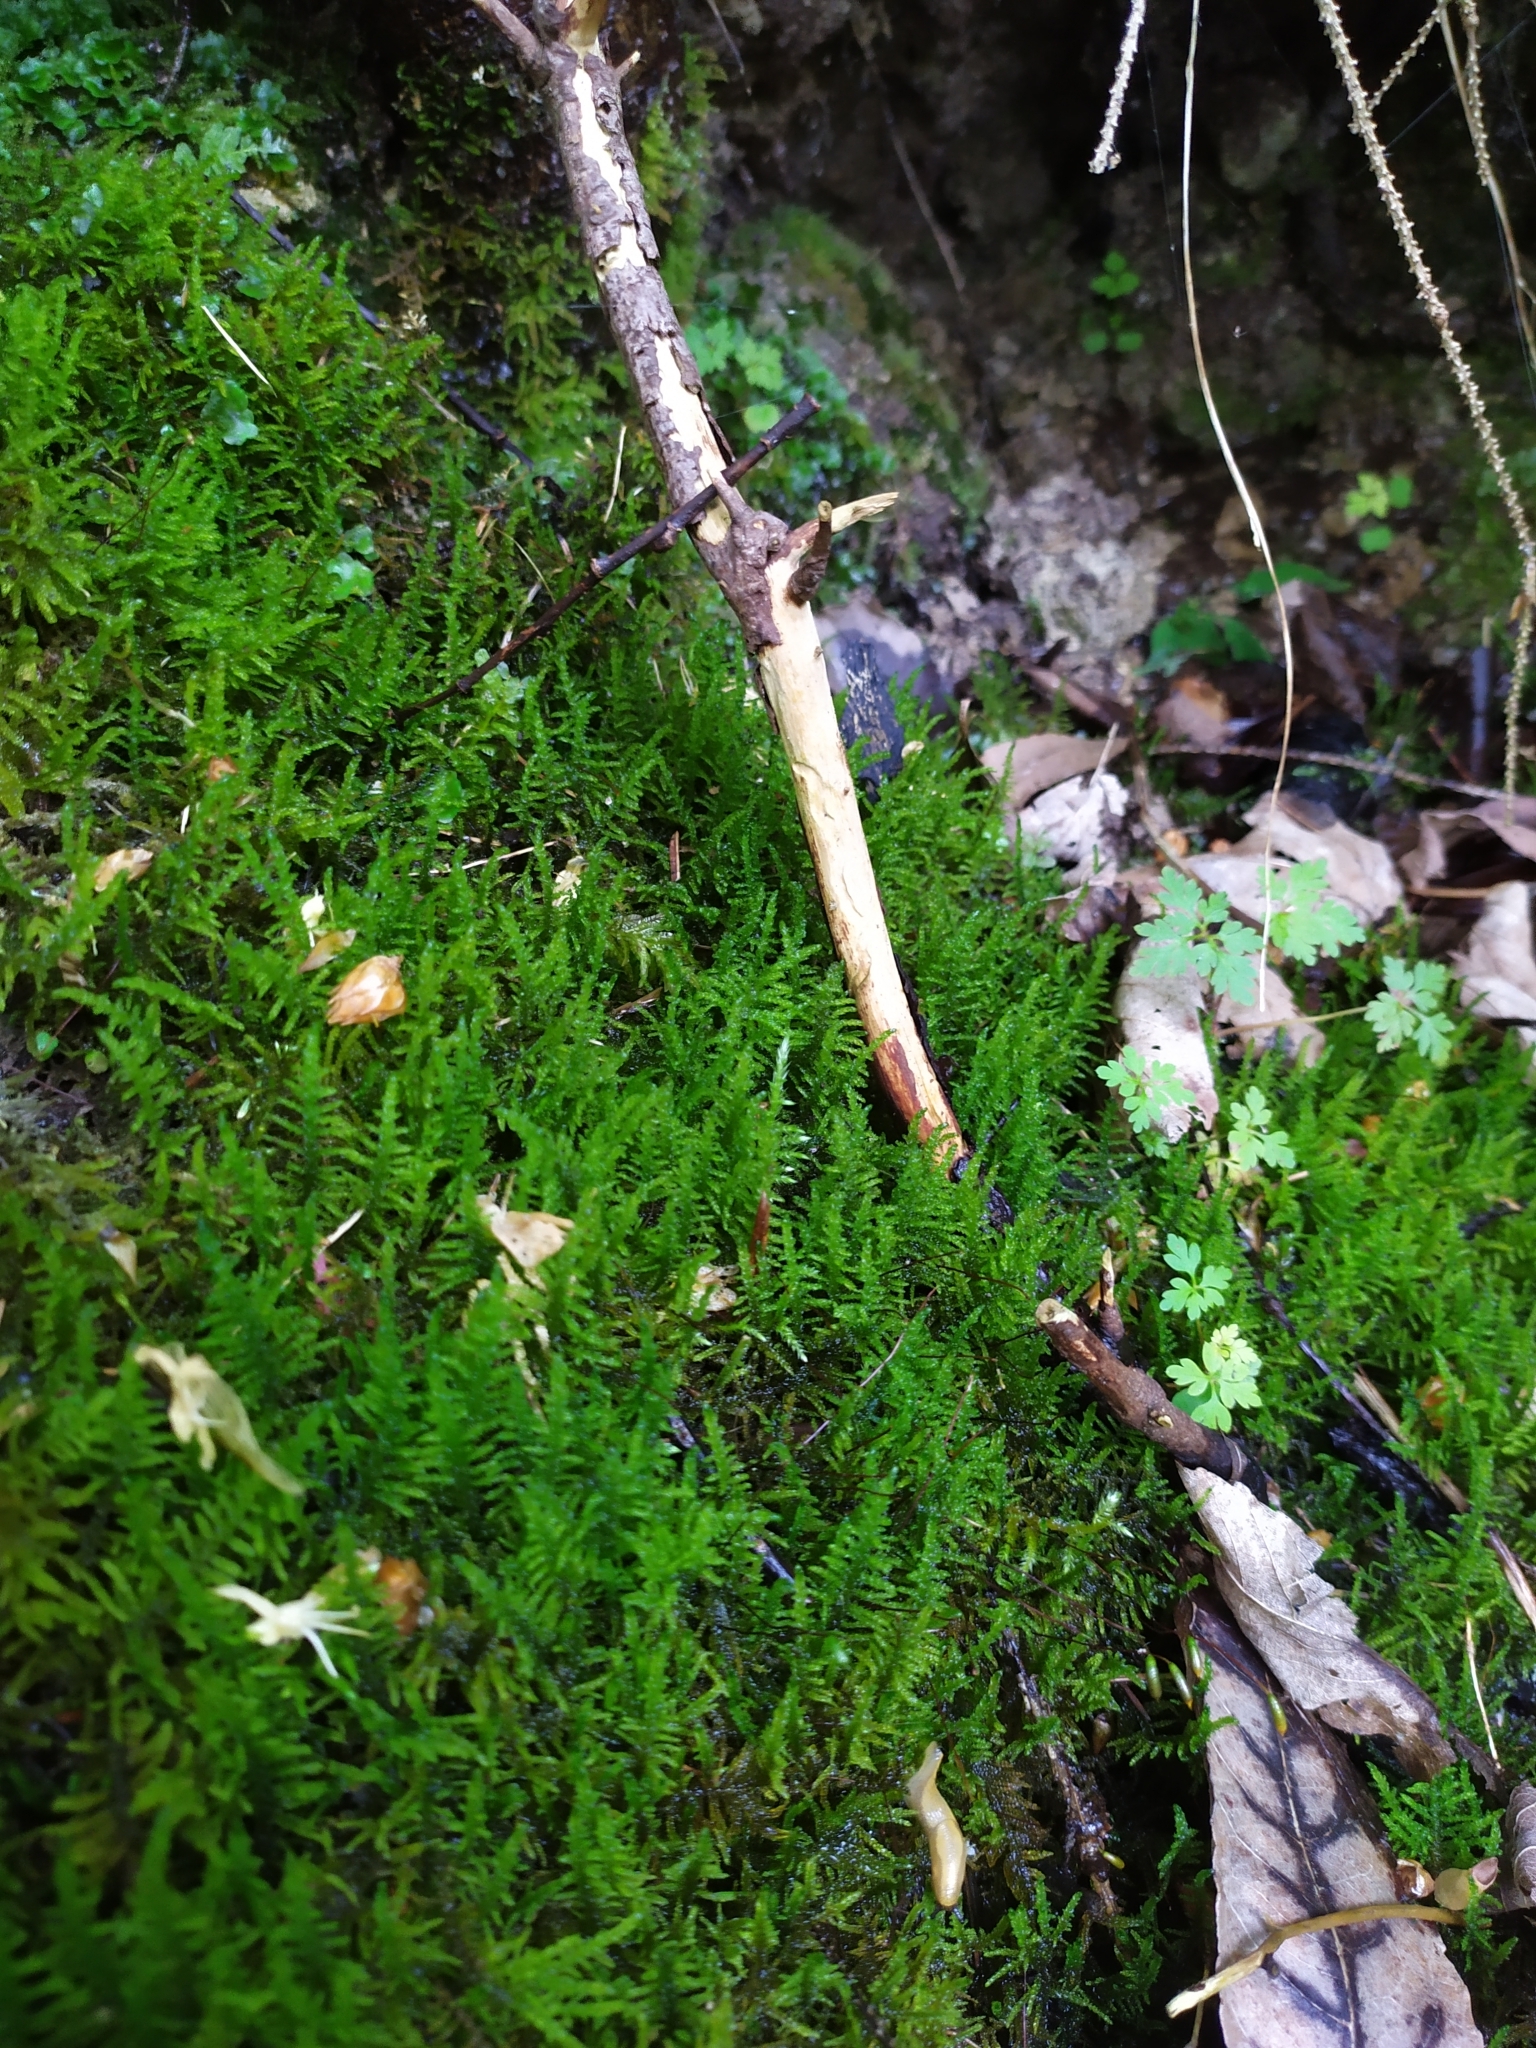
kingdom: Plantae
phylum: Bryophyta
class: Bryopsida
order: Hypnales
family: Amblystegiaceae
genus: Palustriella
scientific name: Palustriella commutata
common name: Curled hook-moss
